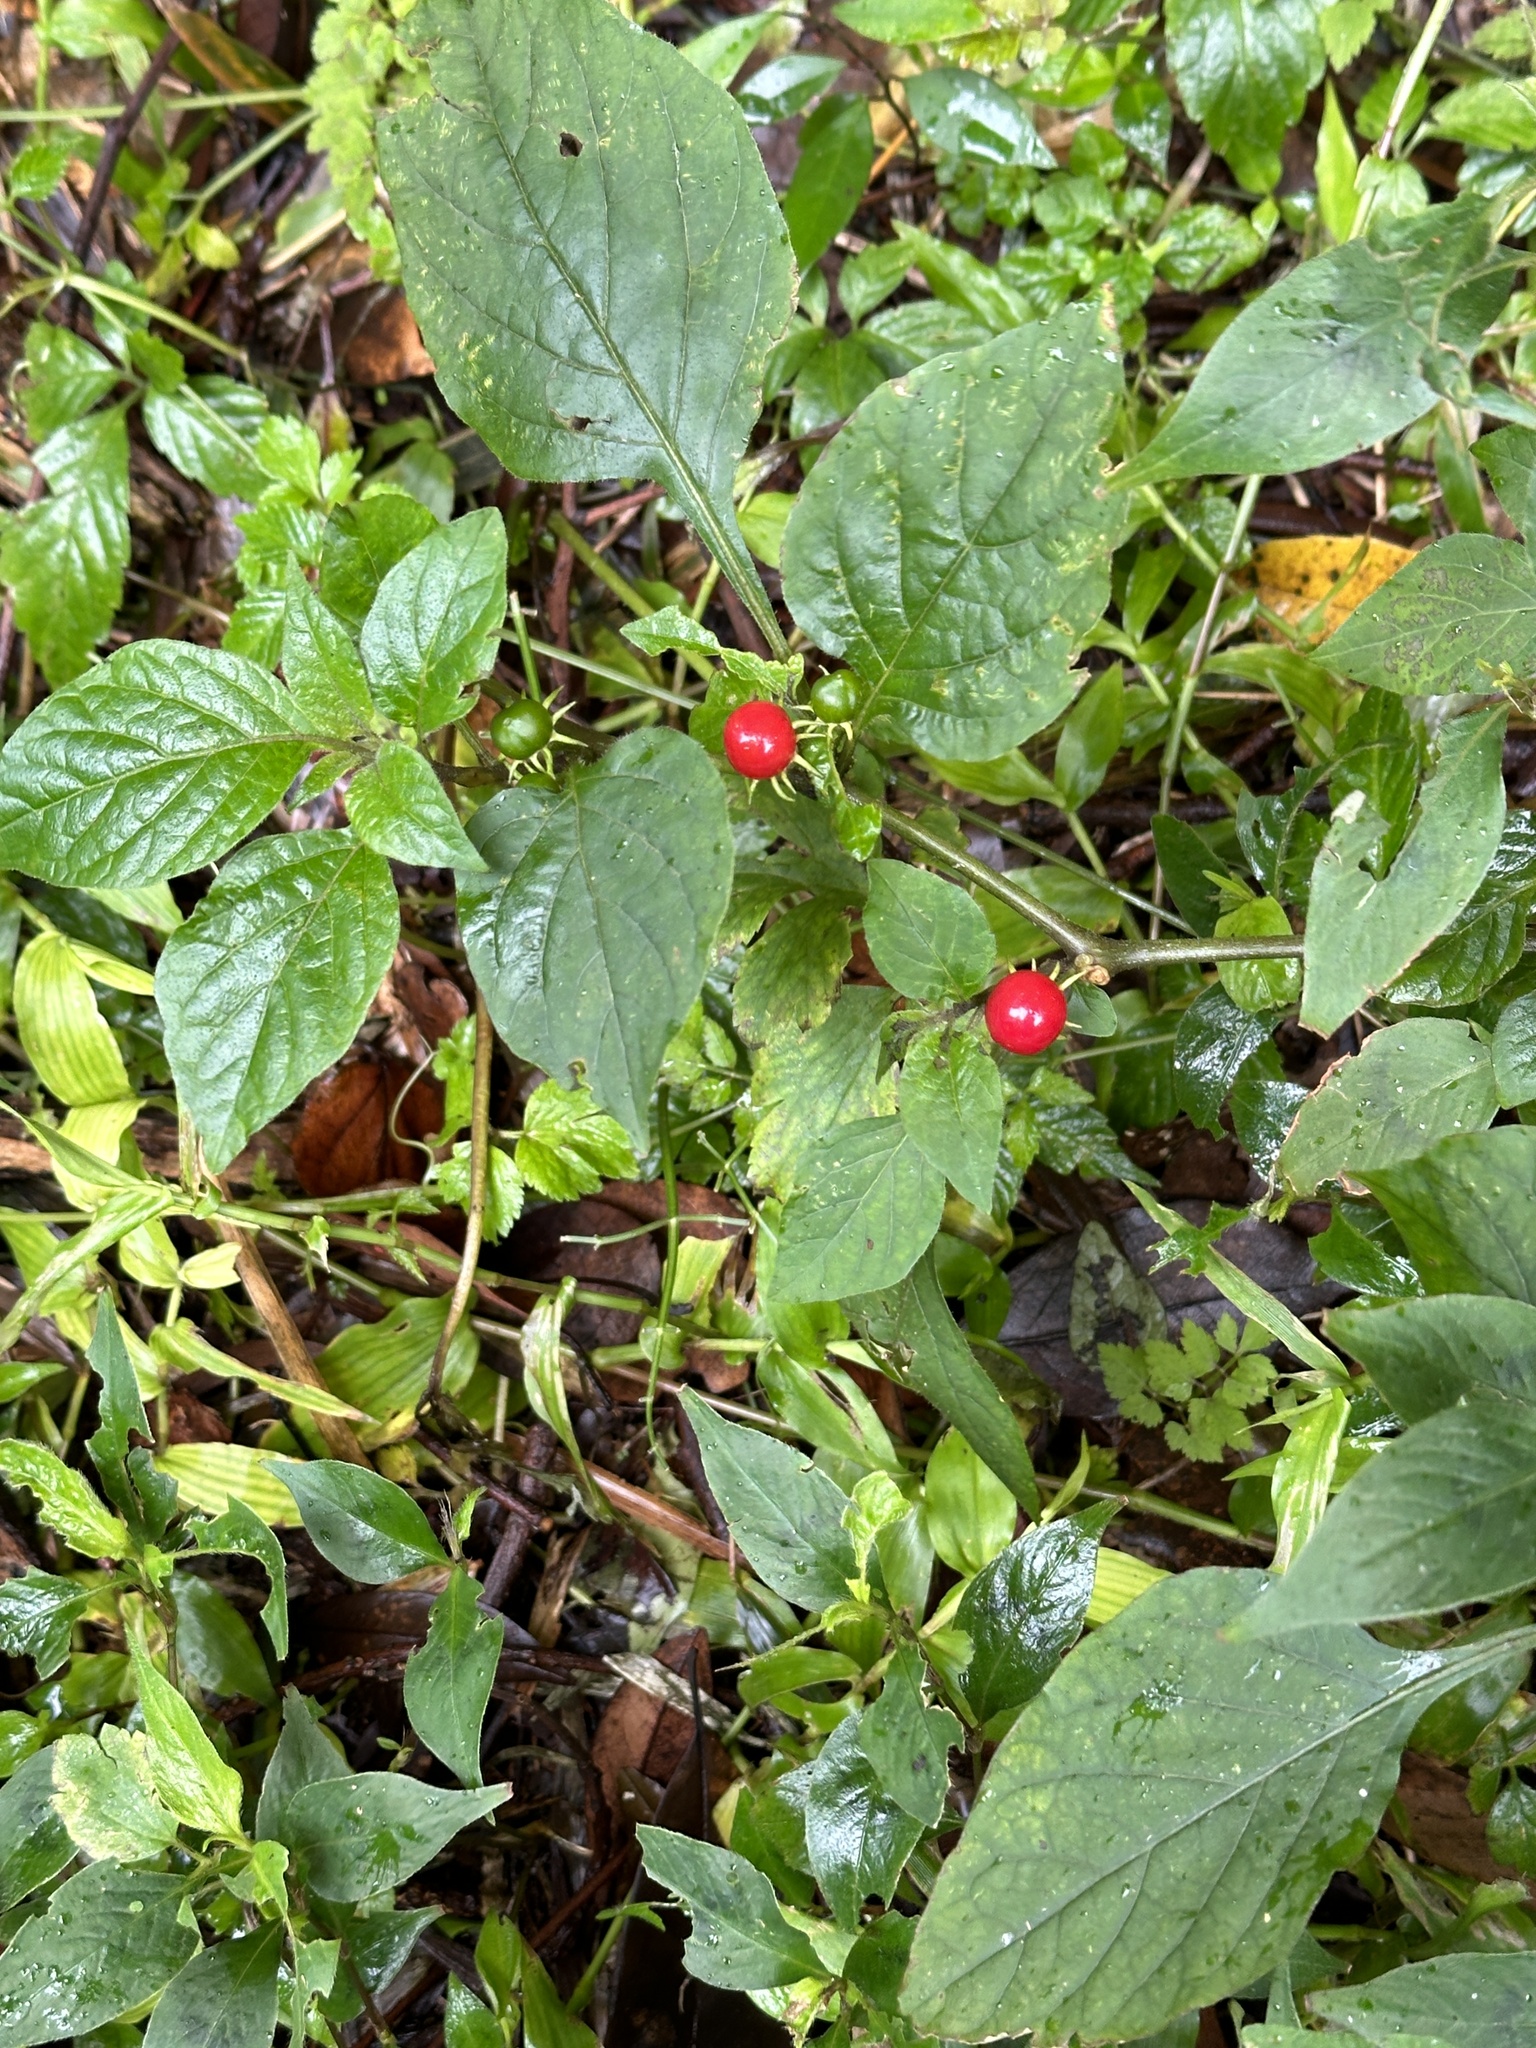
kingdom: Plantae
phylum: Tracheophyta
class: Magnoliopsida
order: Solanales
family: Solanaceae
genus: Lycianthes
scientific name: Lycianthes biflora
